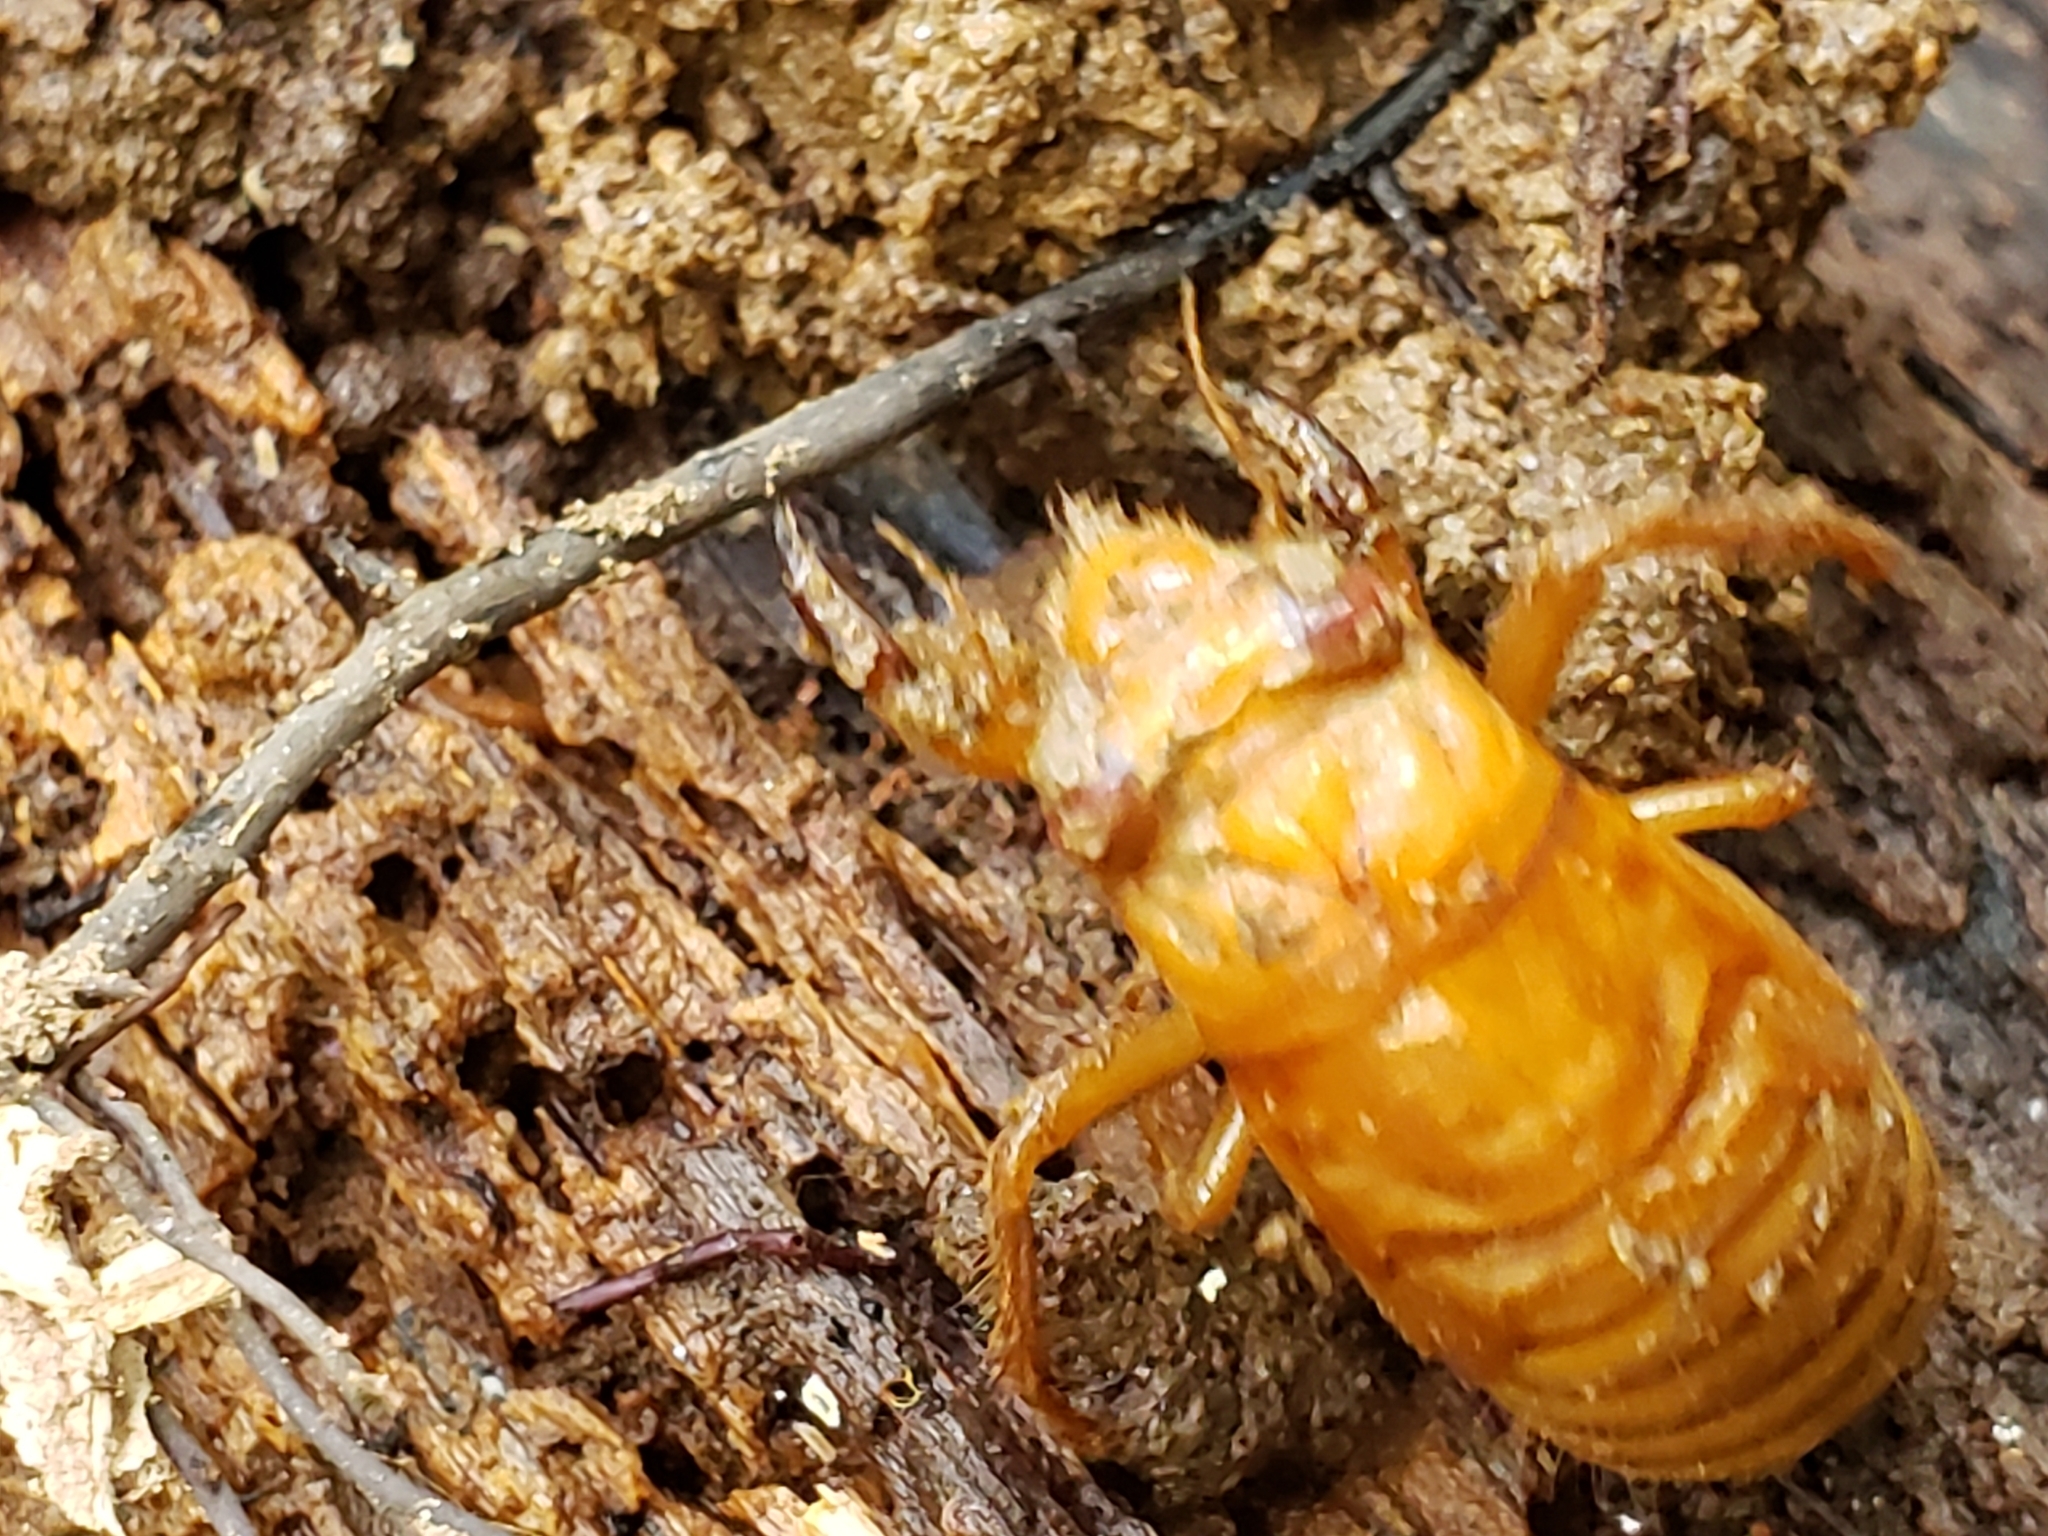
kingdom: Animalia
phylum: Arthropoda
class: Insecta
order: Hemiptera
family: Cicadidae
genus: Magicicada
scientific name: Magicicada
